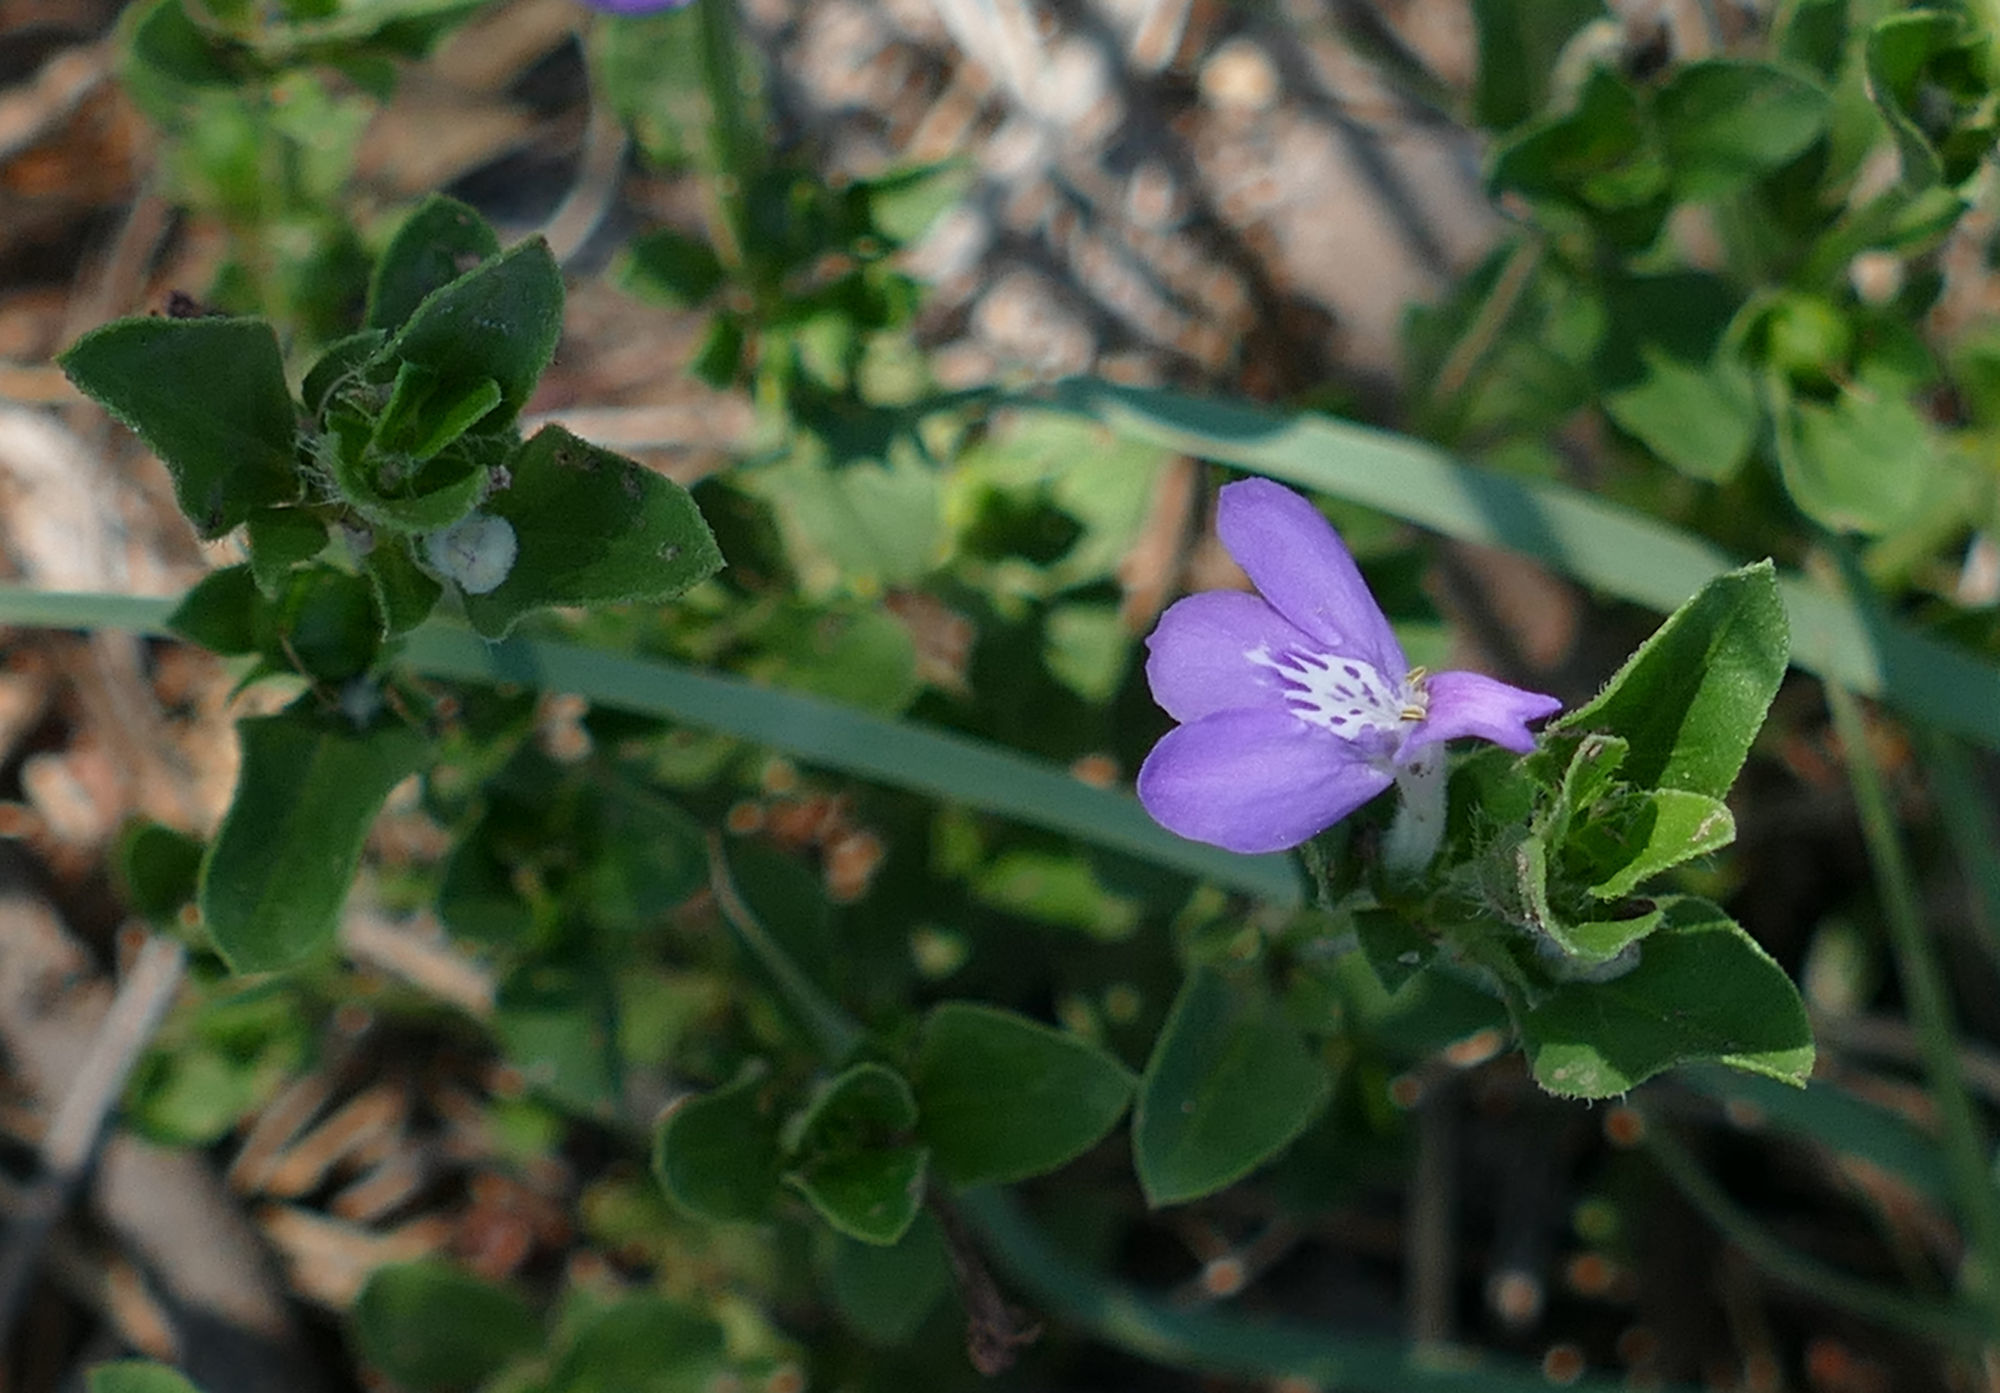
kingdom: Plantae
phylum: Tracheophyta
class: Magnoliopsida
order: Lamiales
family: Acanthaceae
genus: Justicia
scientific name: Justicia pilosella
